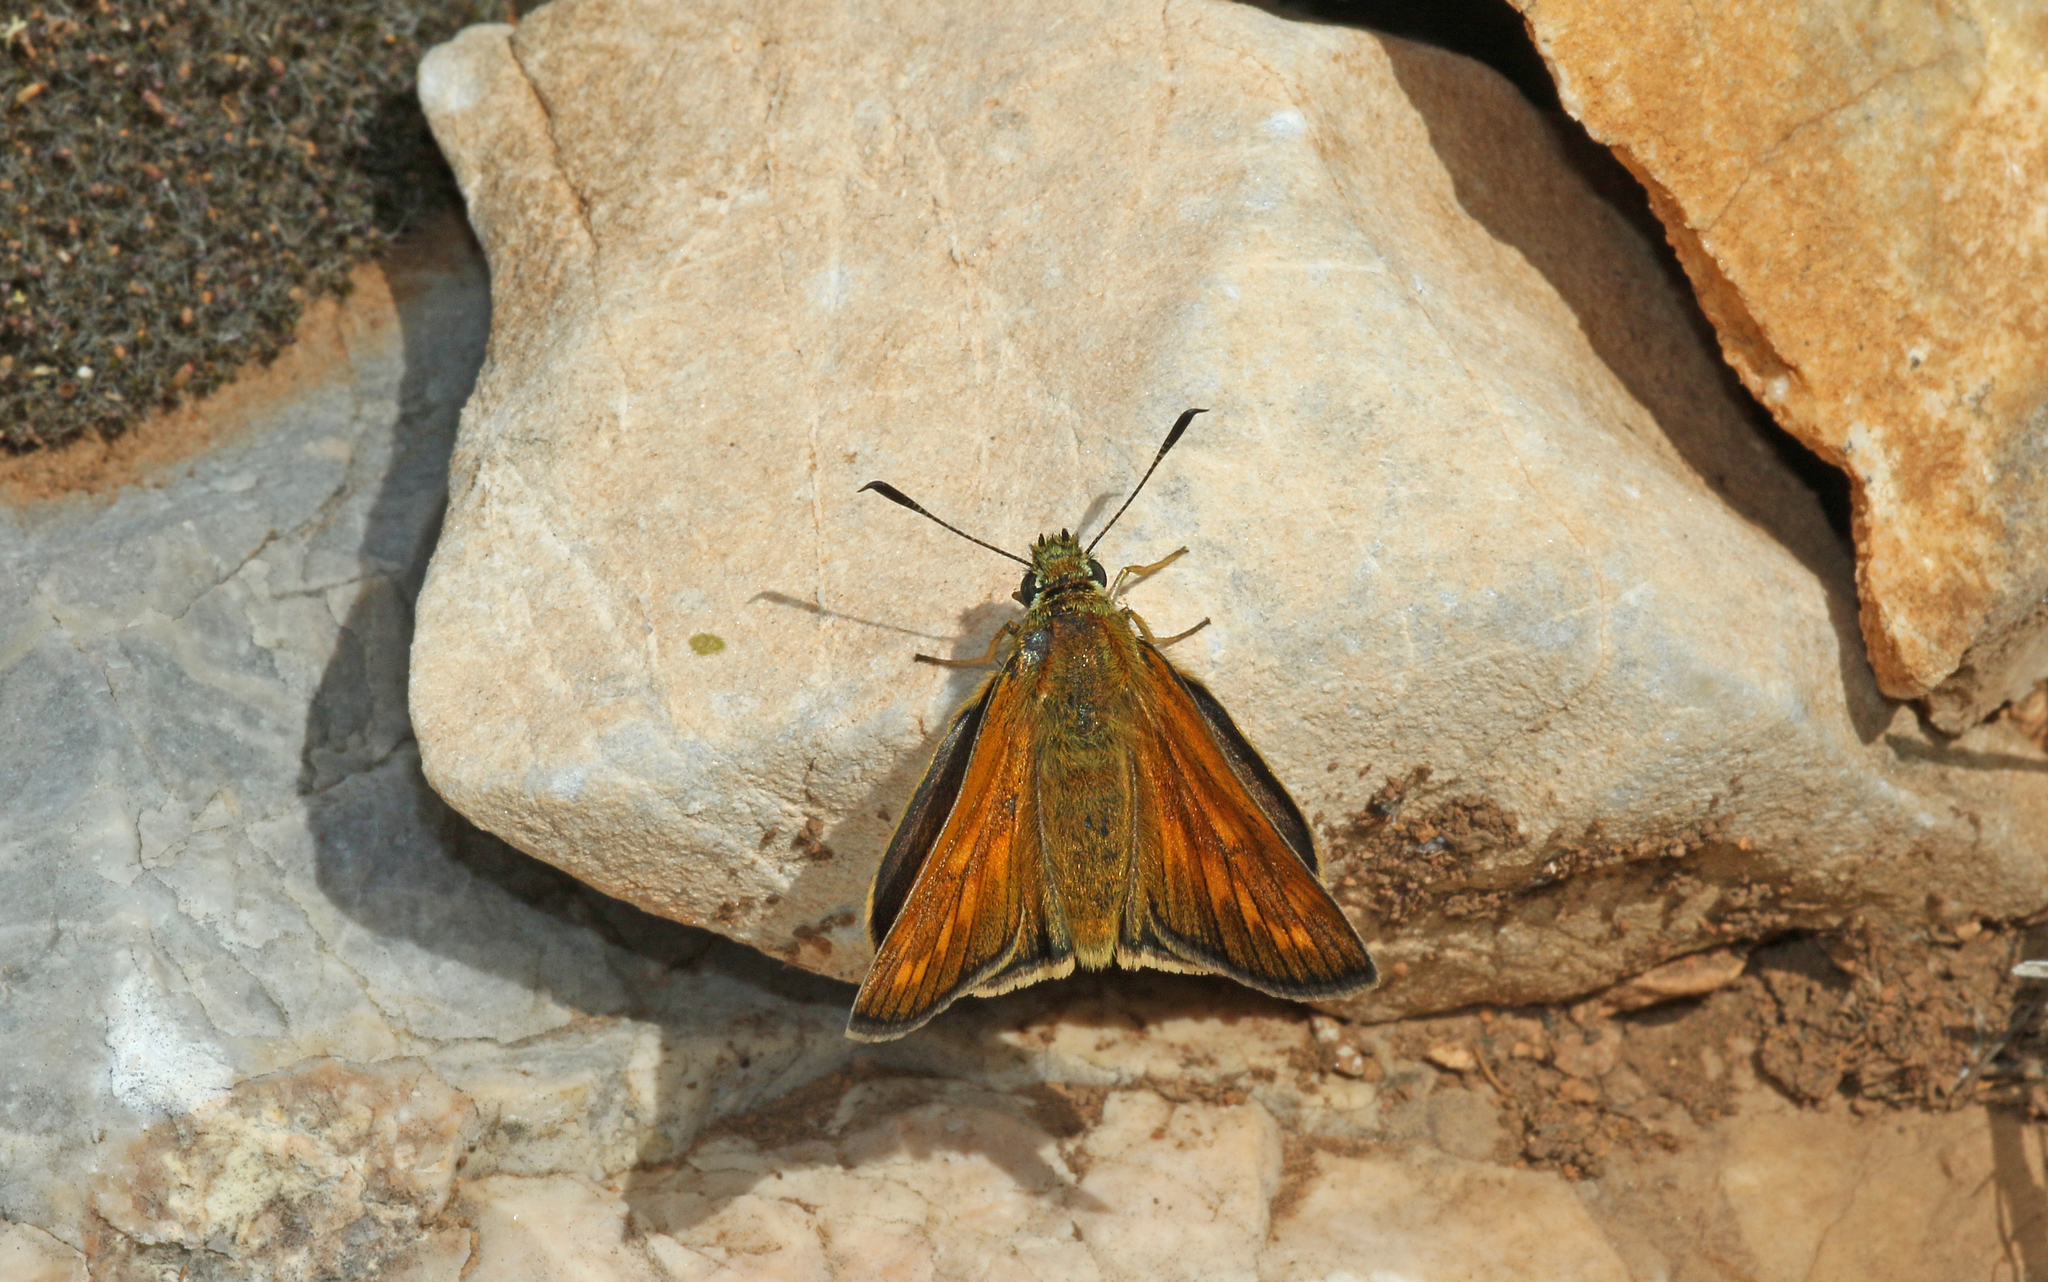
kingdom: Animalia
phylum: Arthropoda
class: Insecta
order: Lepidoptera
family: Hesperiidae
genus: Ochlodes
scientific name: Ochlodes venata
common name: Large skipper
